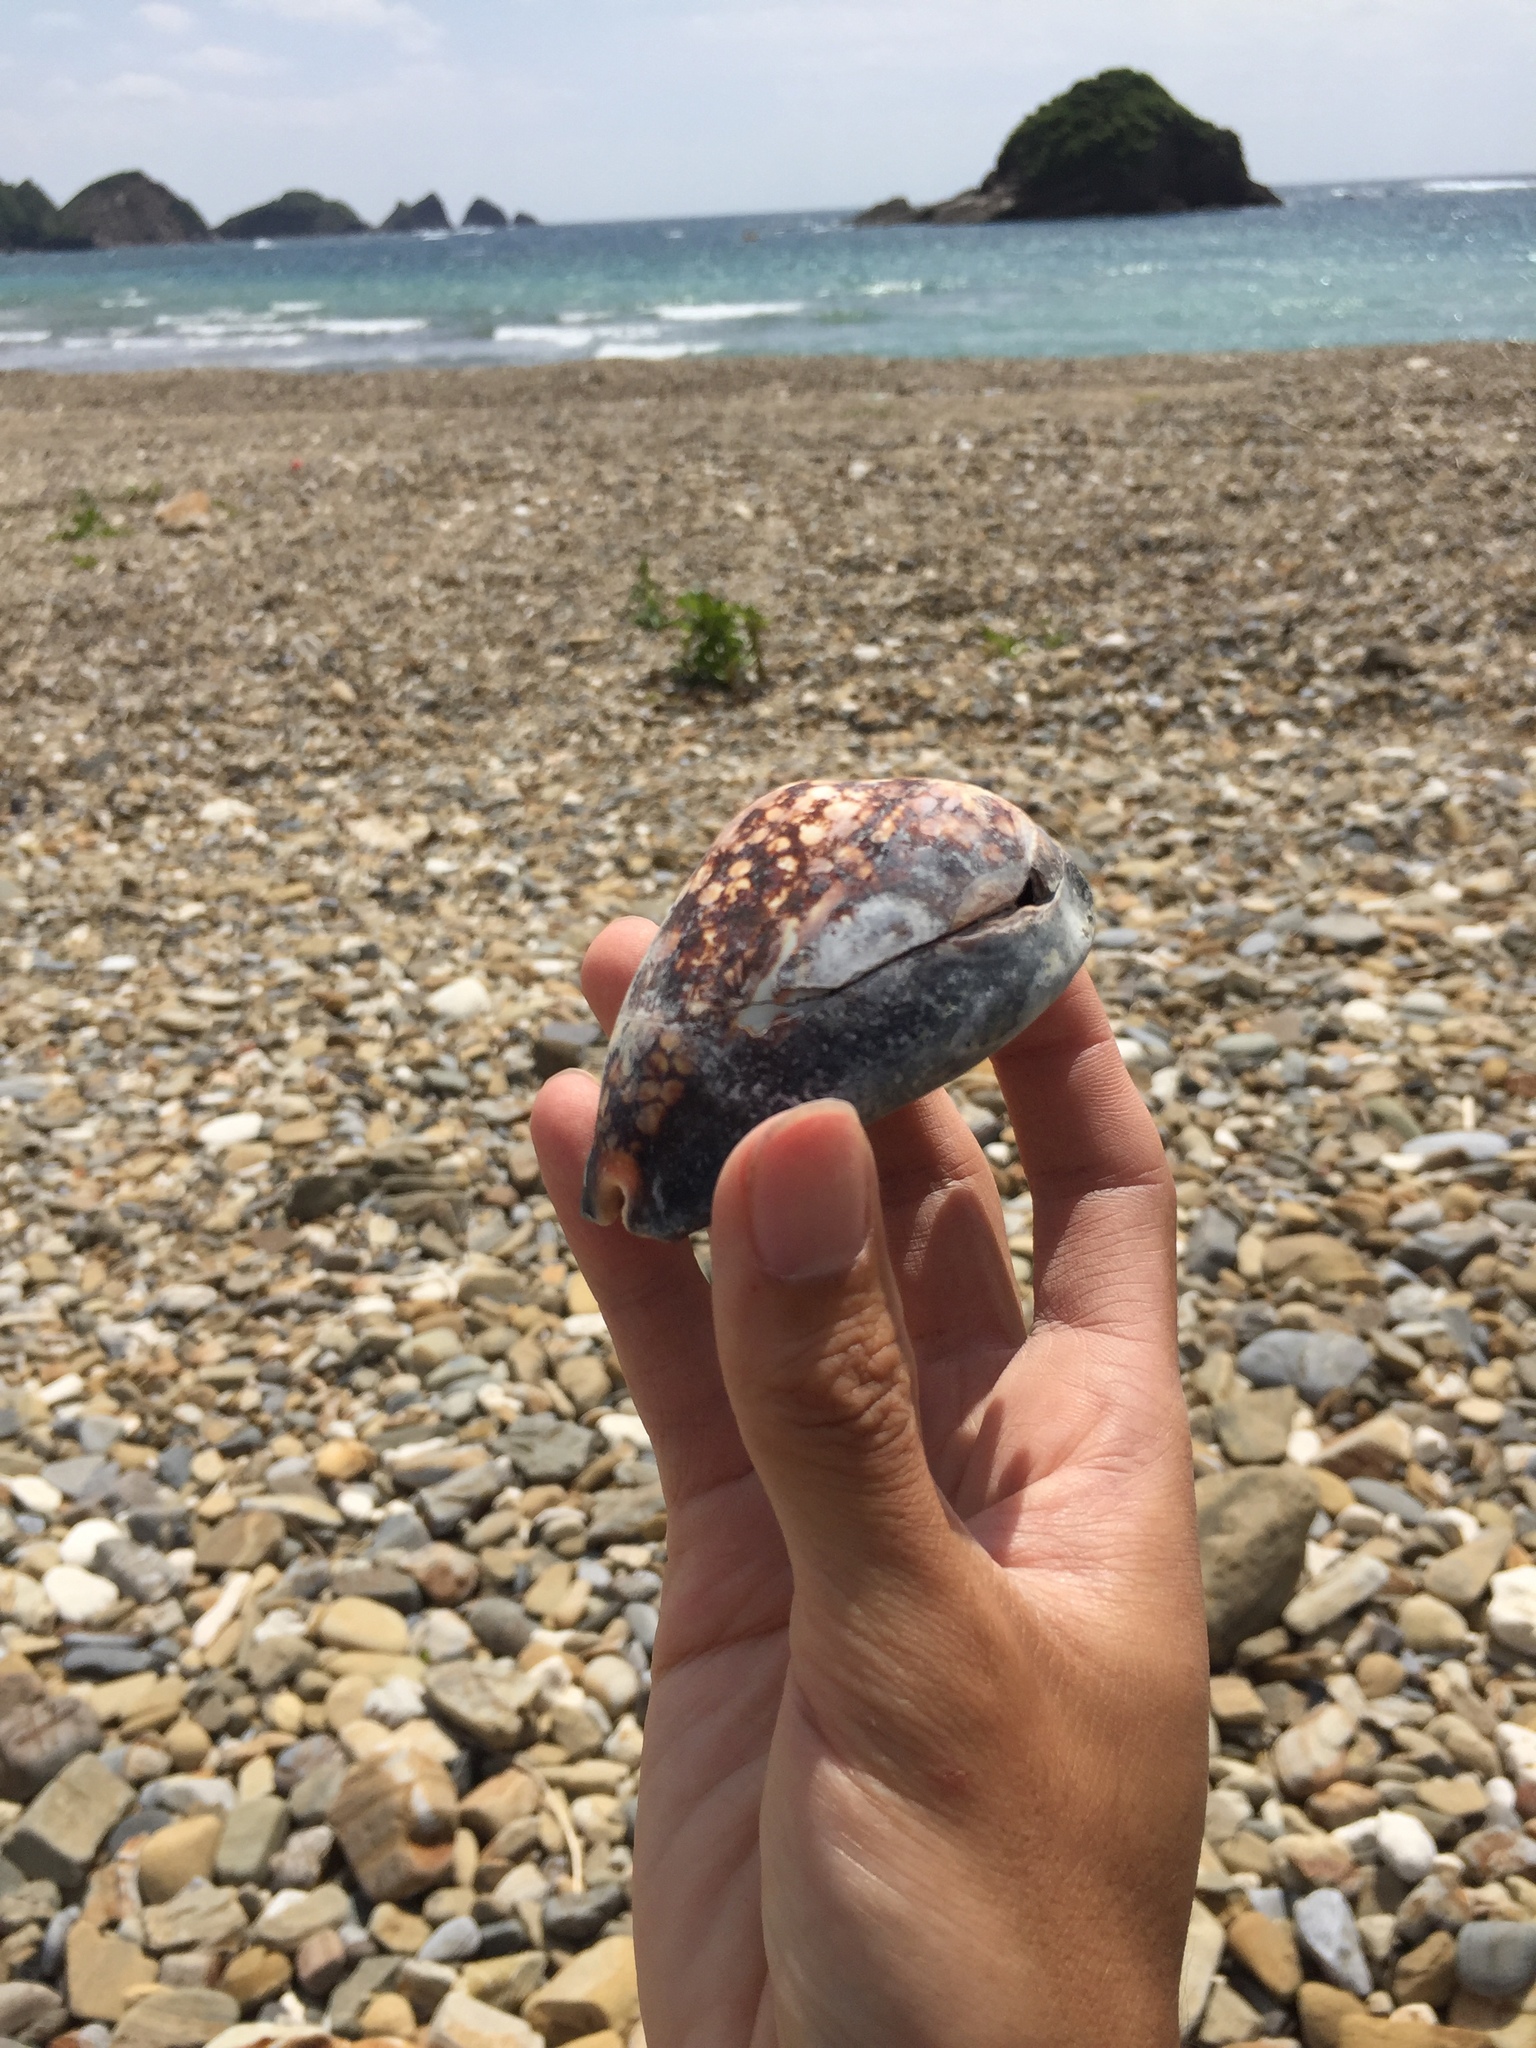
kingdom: Animalia
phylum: Mollusca
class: Gastropoda
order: Littorinimorpha
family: Cypraeidae
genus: Mauritia
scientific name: Mauritia mauritiana
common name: Hump-backed cowrie
